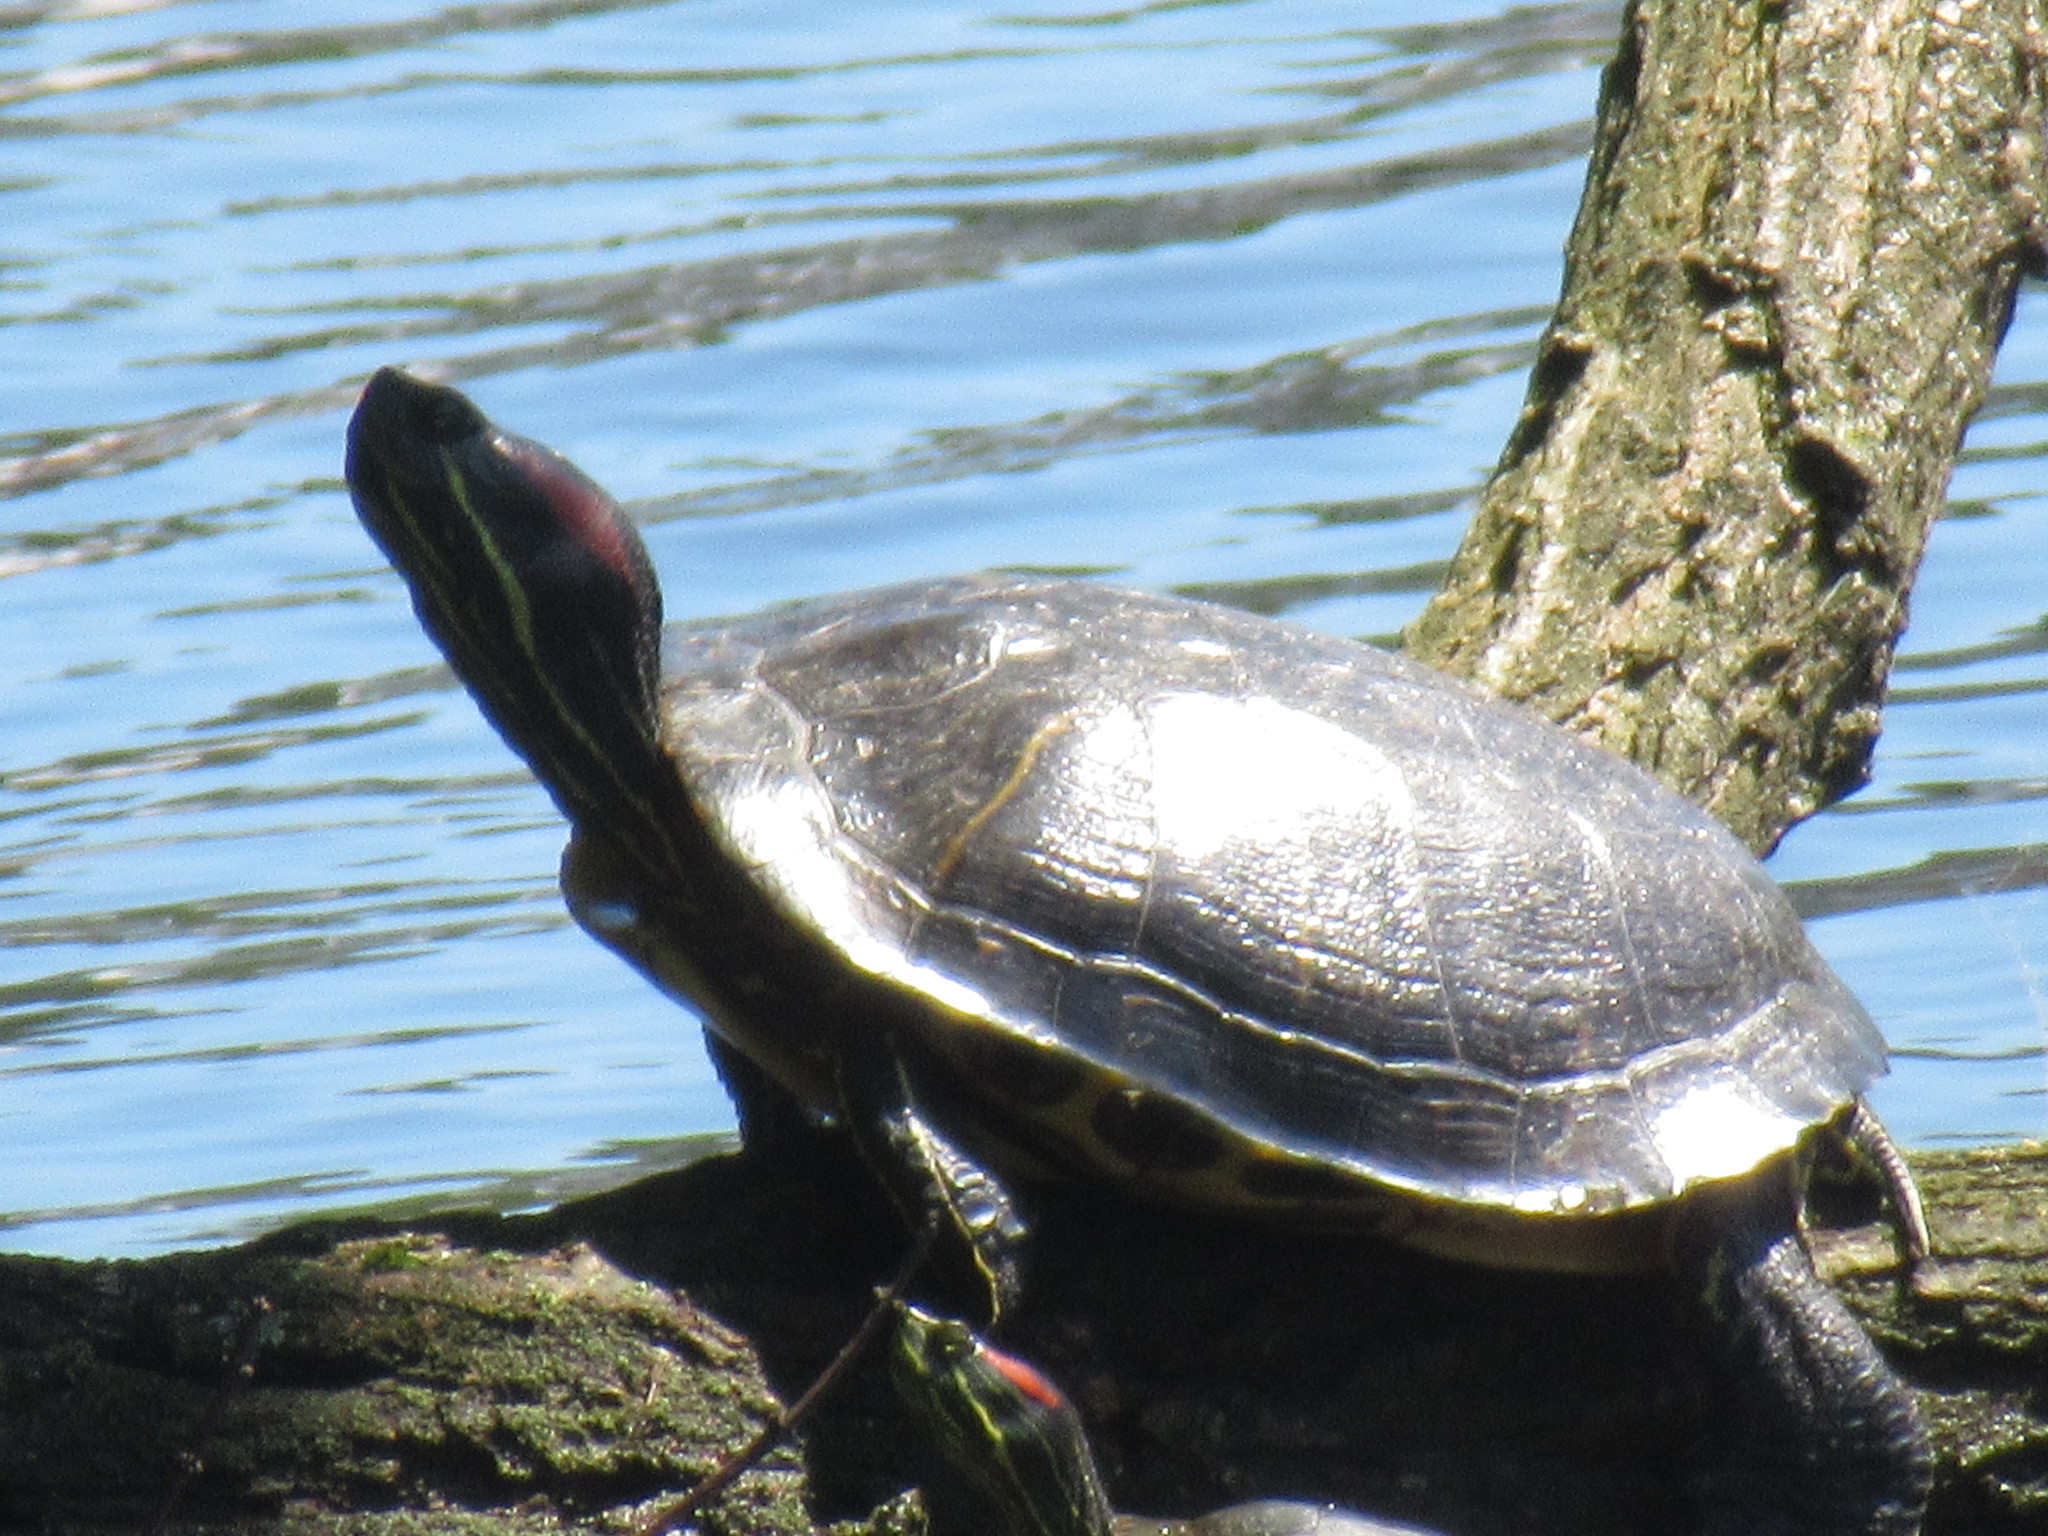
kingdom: Animalia
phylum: Chordata
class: Testudines
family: Emydidae
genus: Trachemys
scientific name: Trachemys scripta
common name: Slider
